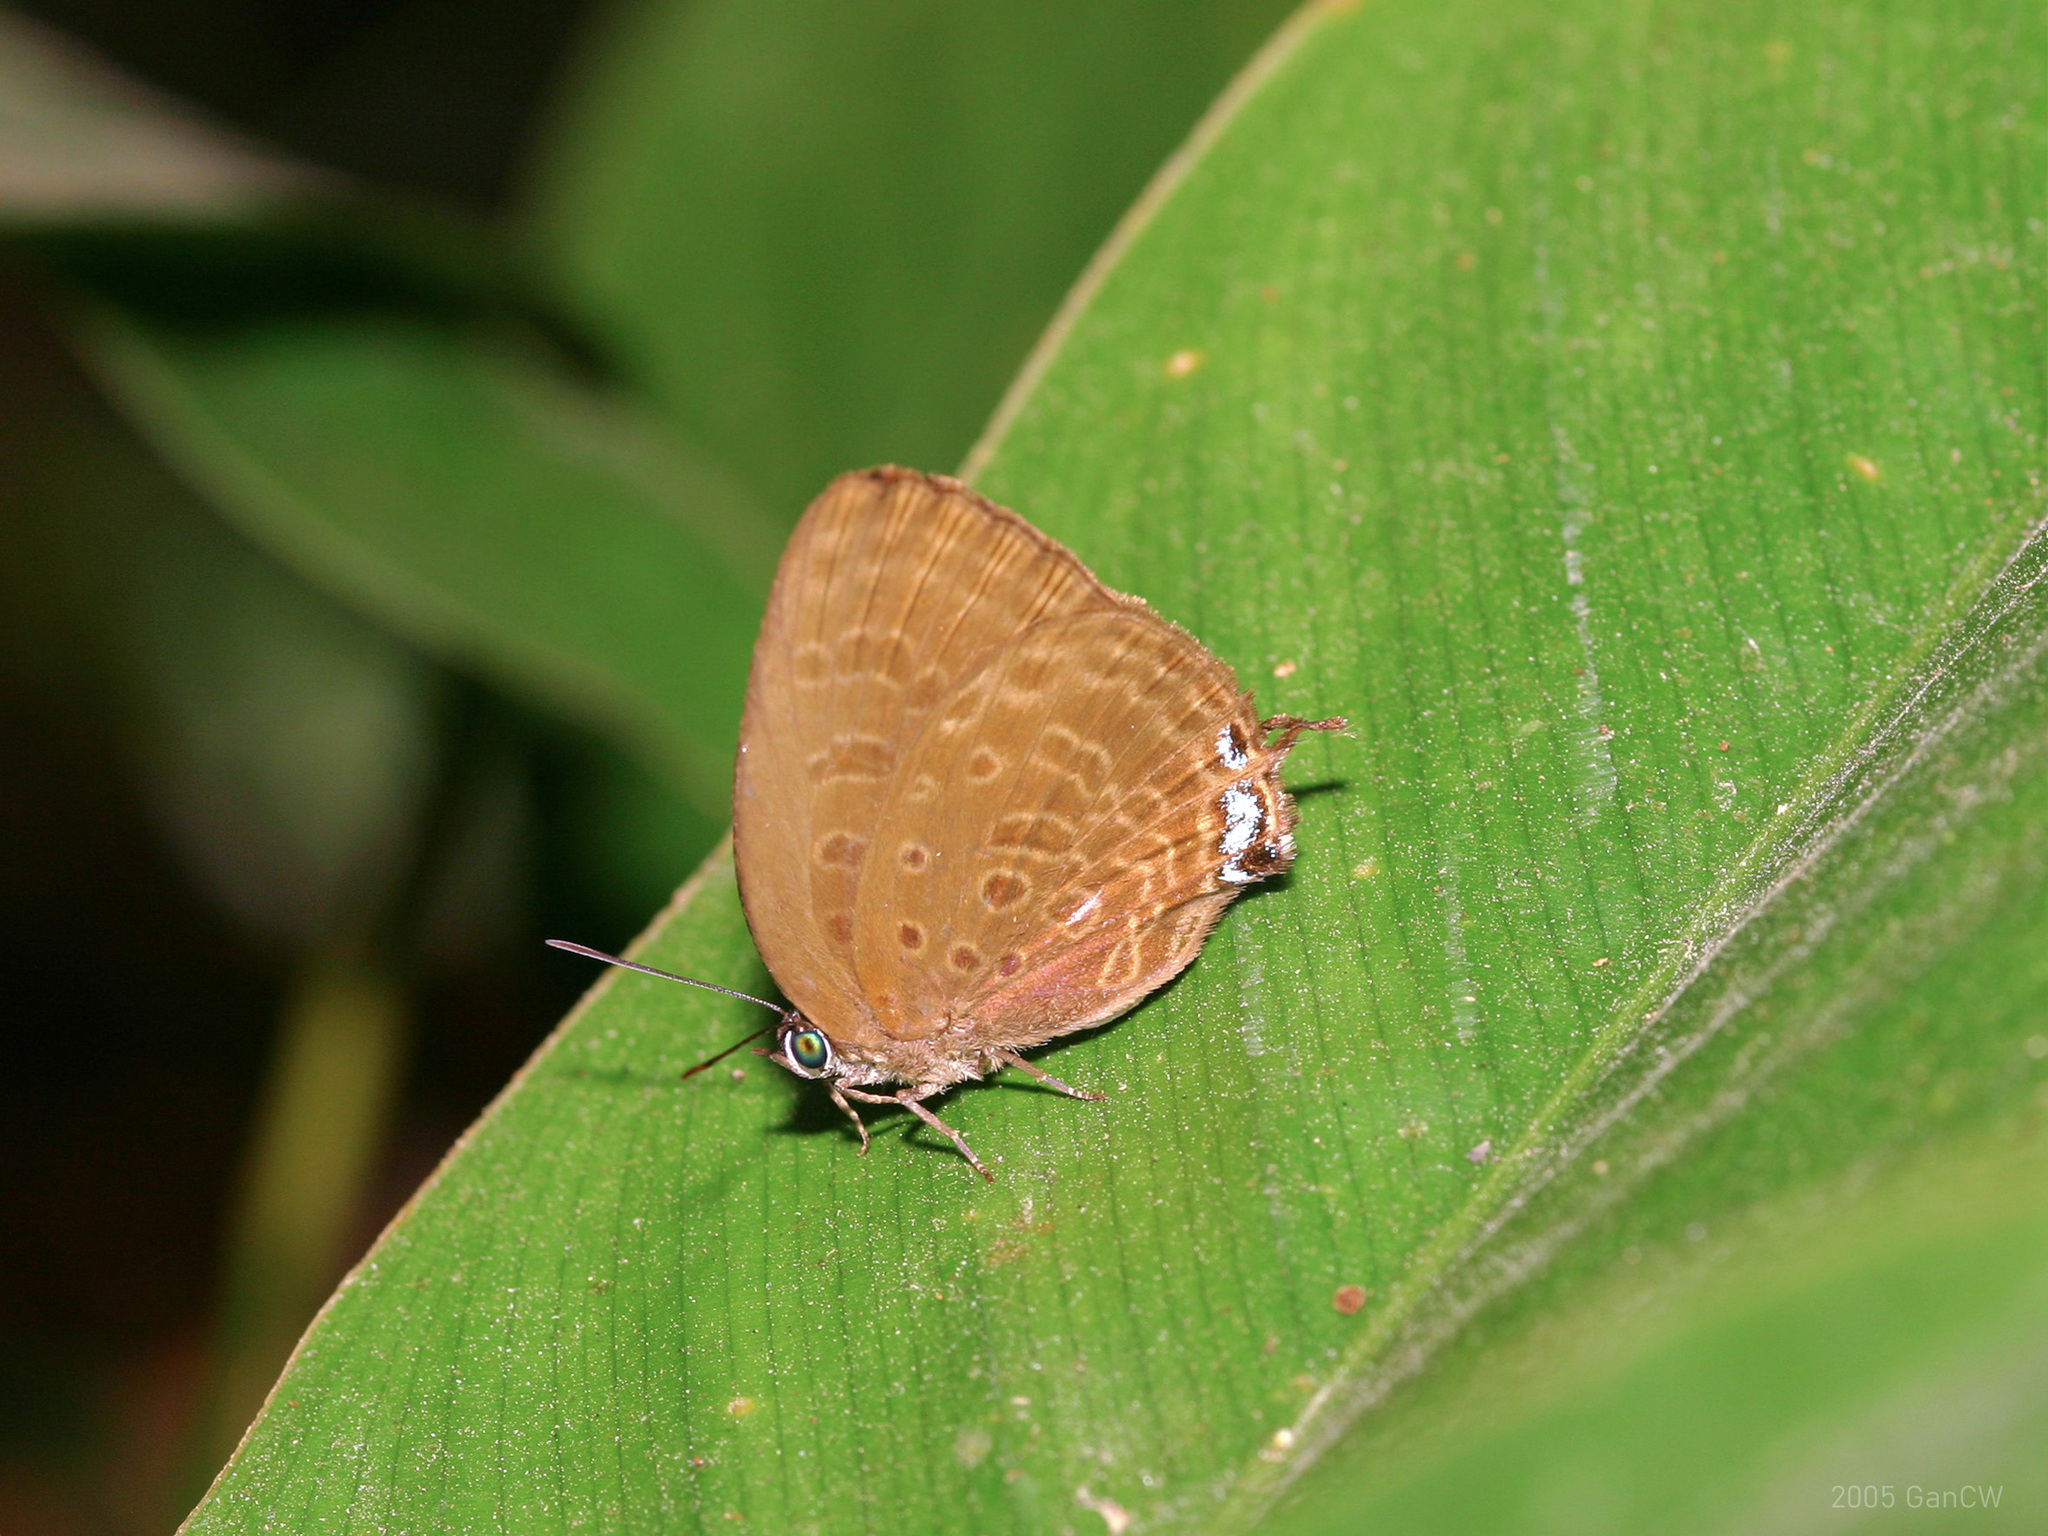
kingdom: Animalia
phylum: Arthropoda
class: Insecta
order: Lepidoptera
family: Lycaenidae
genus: Arhopala
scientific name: Arhopala delta
